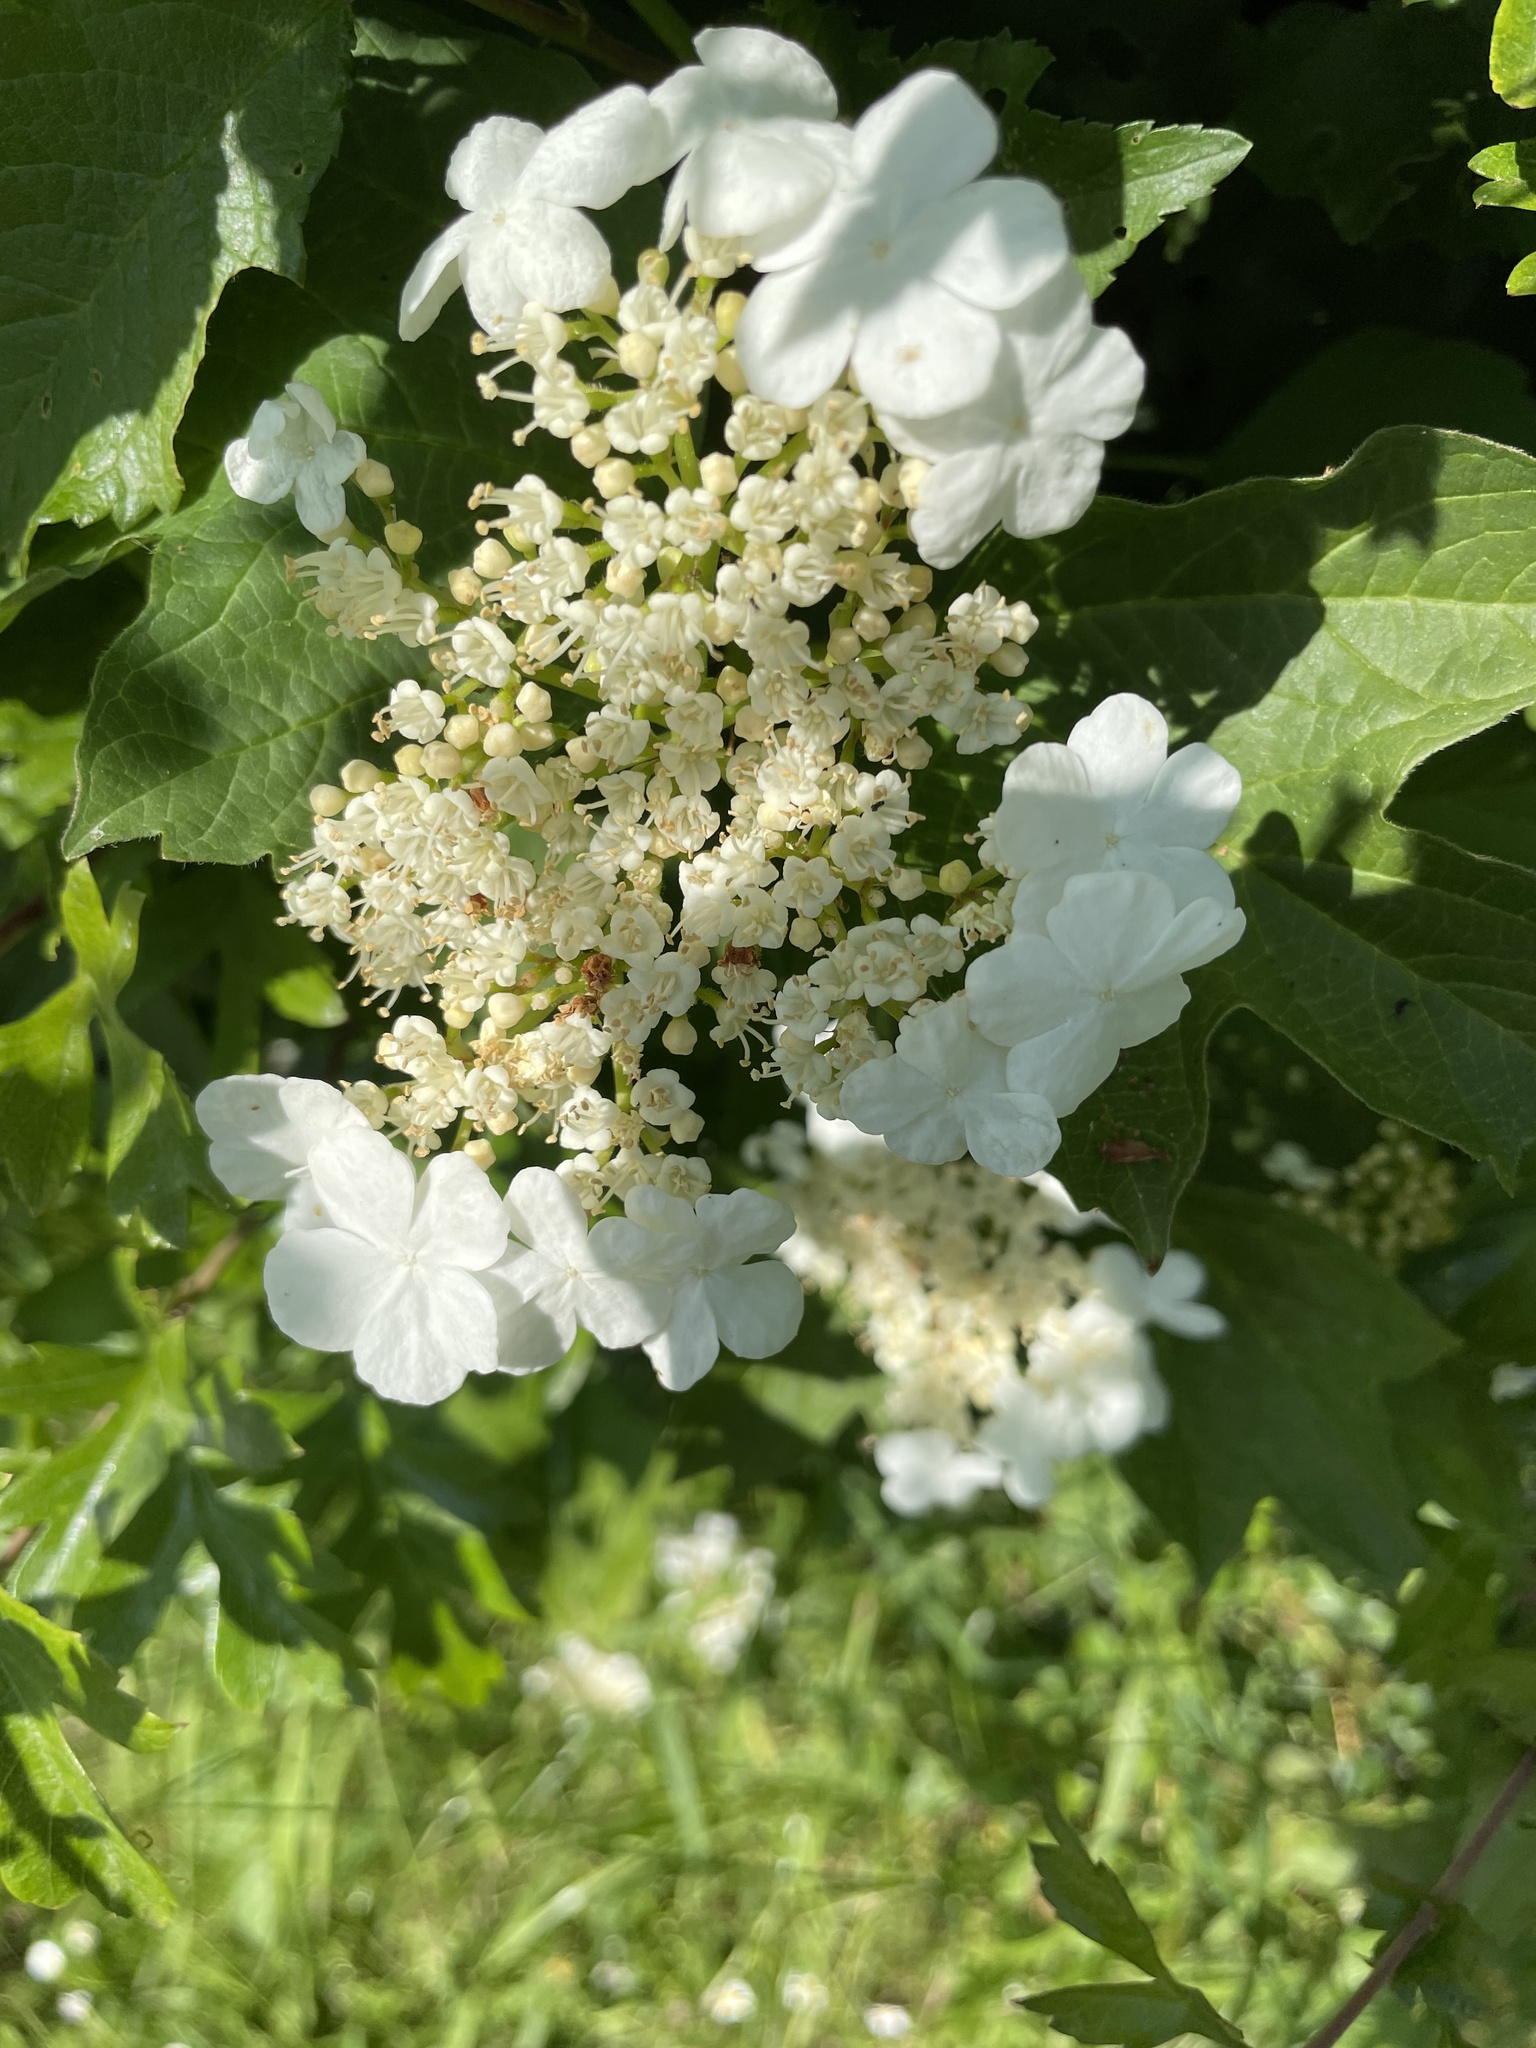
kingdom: Plantae
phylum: Tracheophyta
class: Magnoliopsida
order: Dipsacales
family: Viburnaceae
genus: Viburnum
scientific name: Viburnum opulus
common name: Guelder-rose
